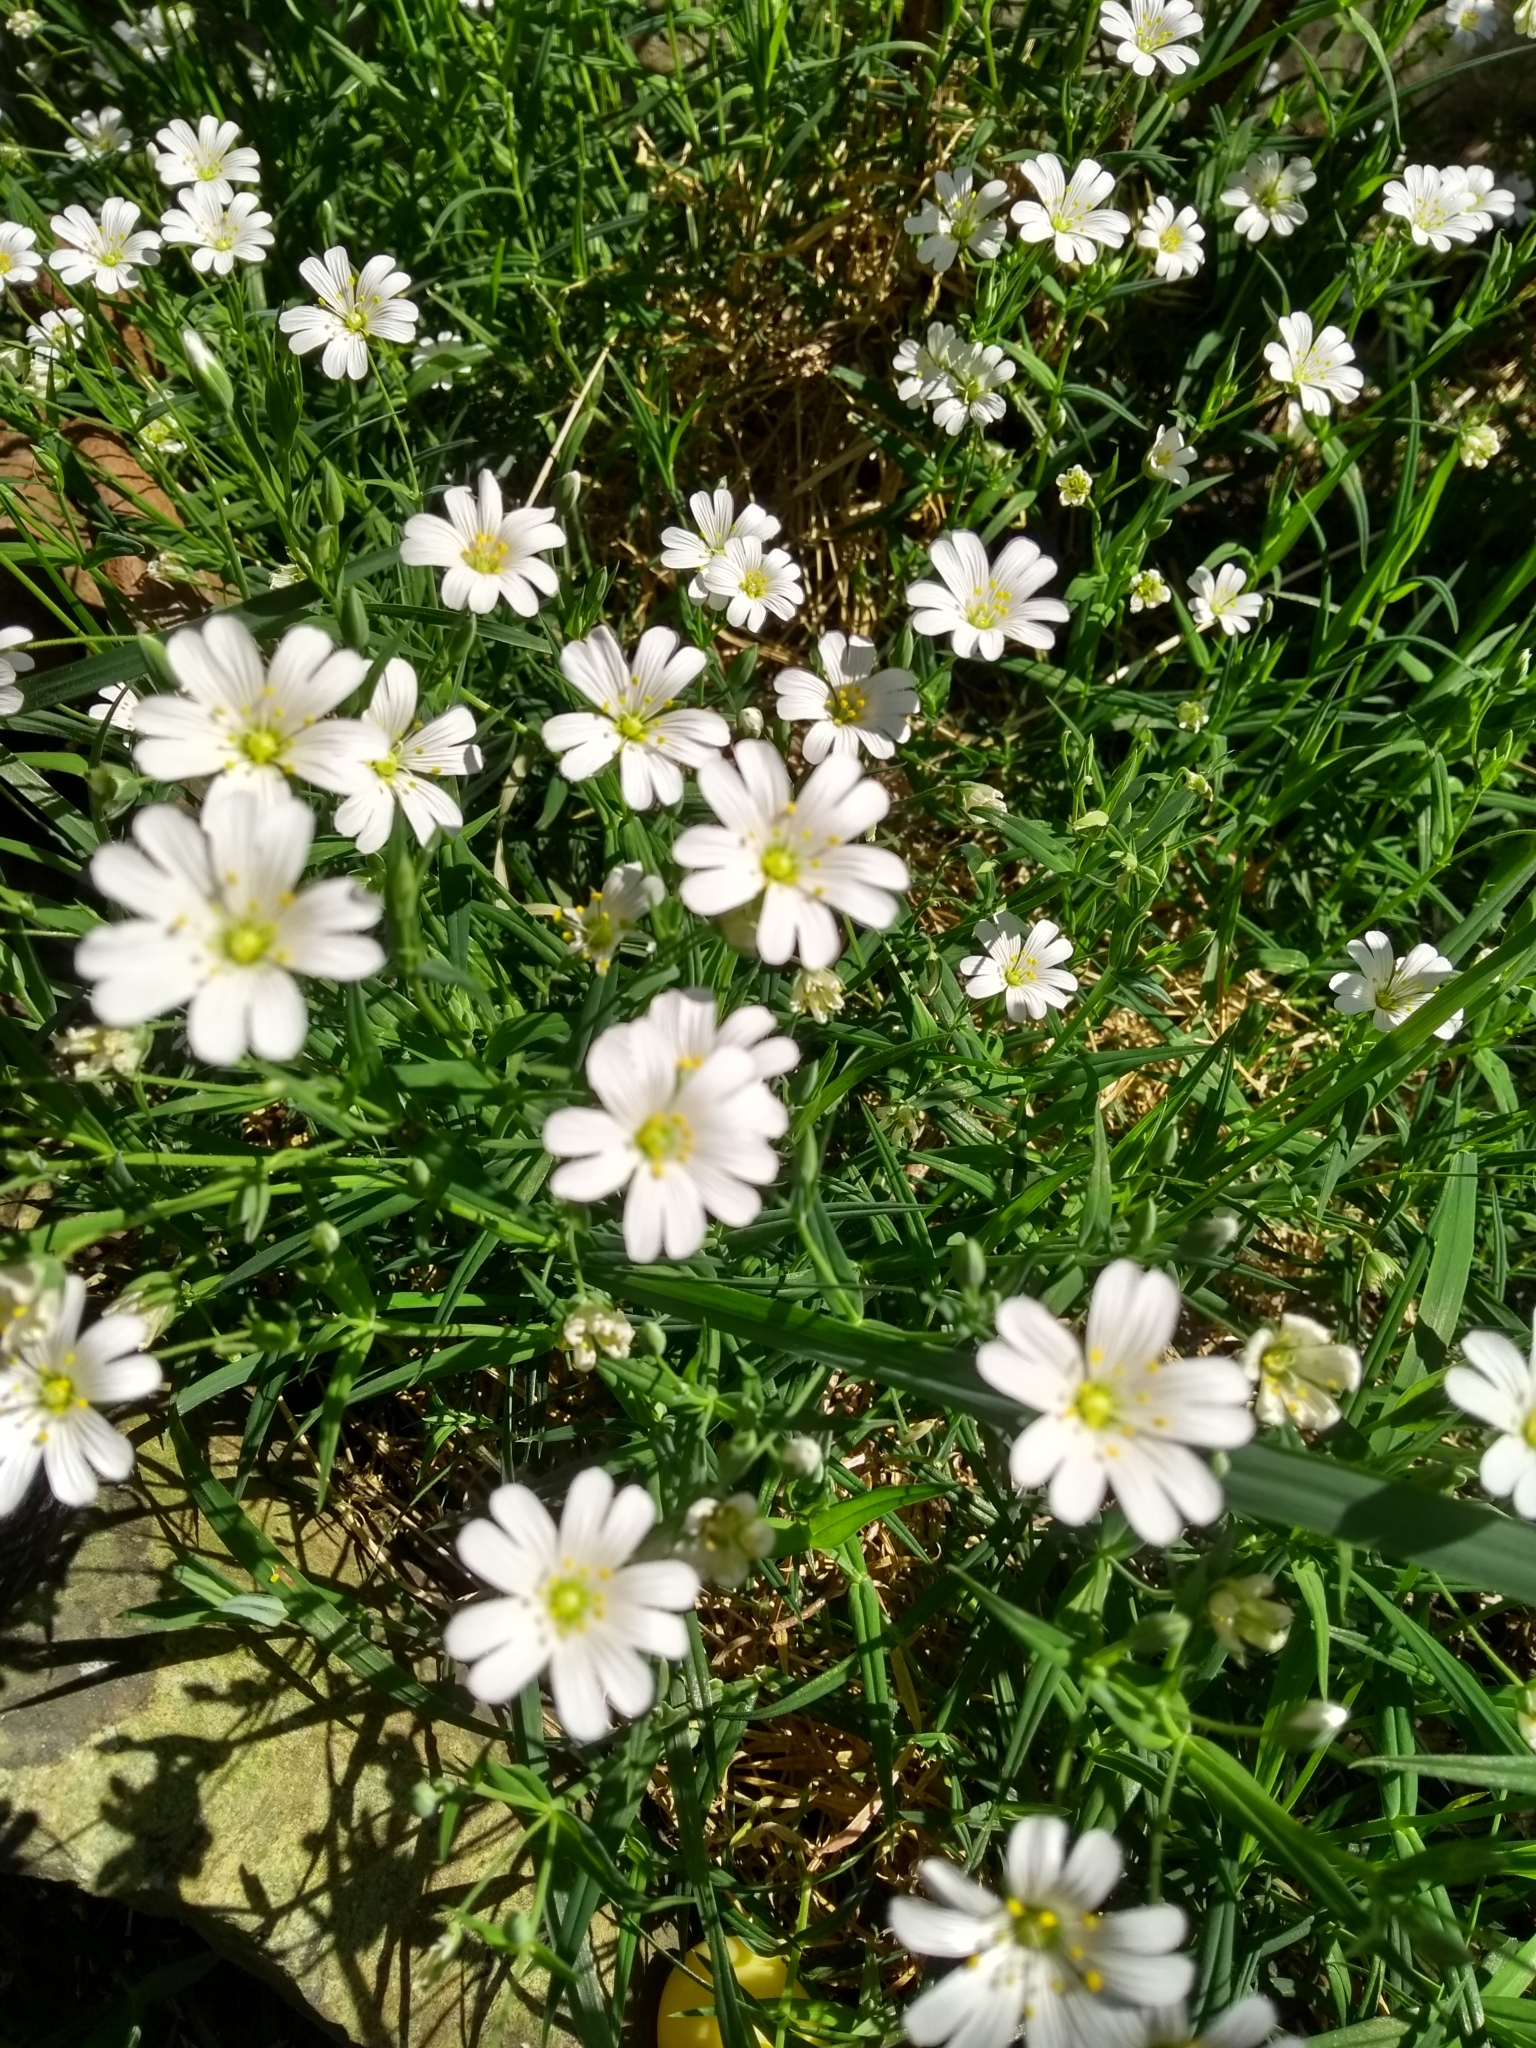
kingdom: Plantae
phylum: Tracheophyta
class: Magnoliopsida
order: Caryophyllales
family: Caryophyllaceae
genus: Rabelera
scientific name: Rabelera holostea
